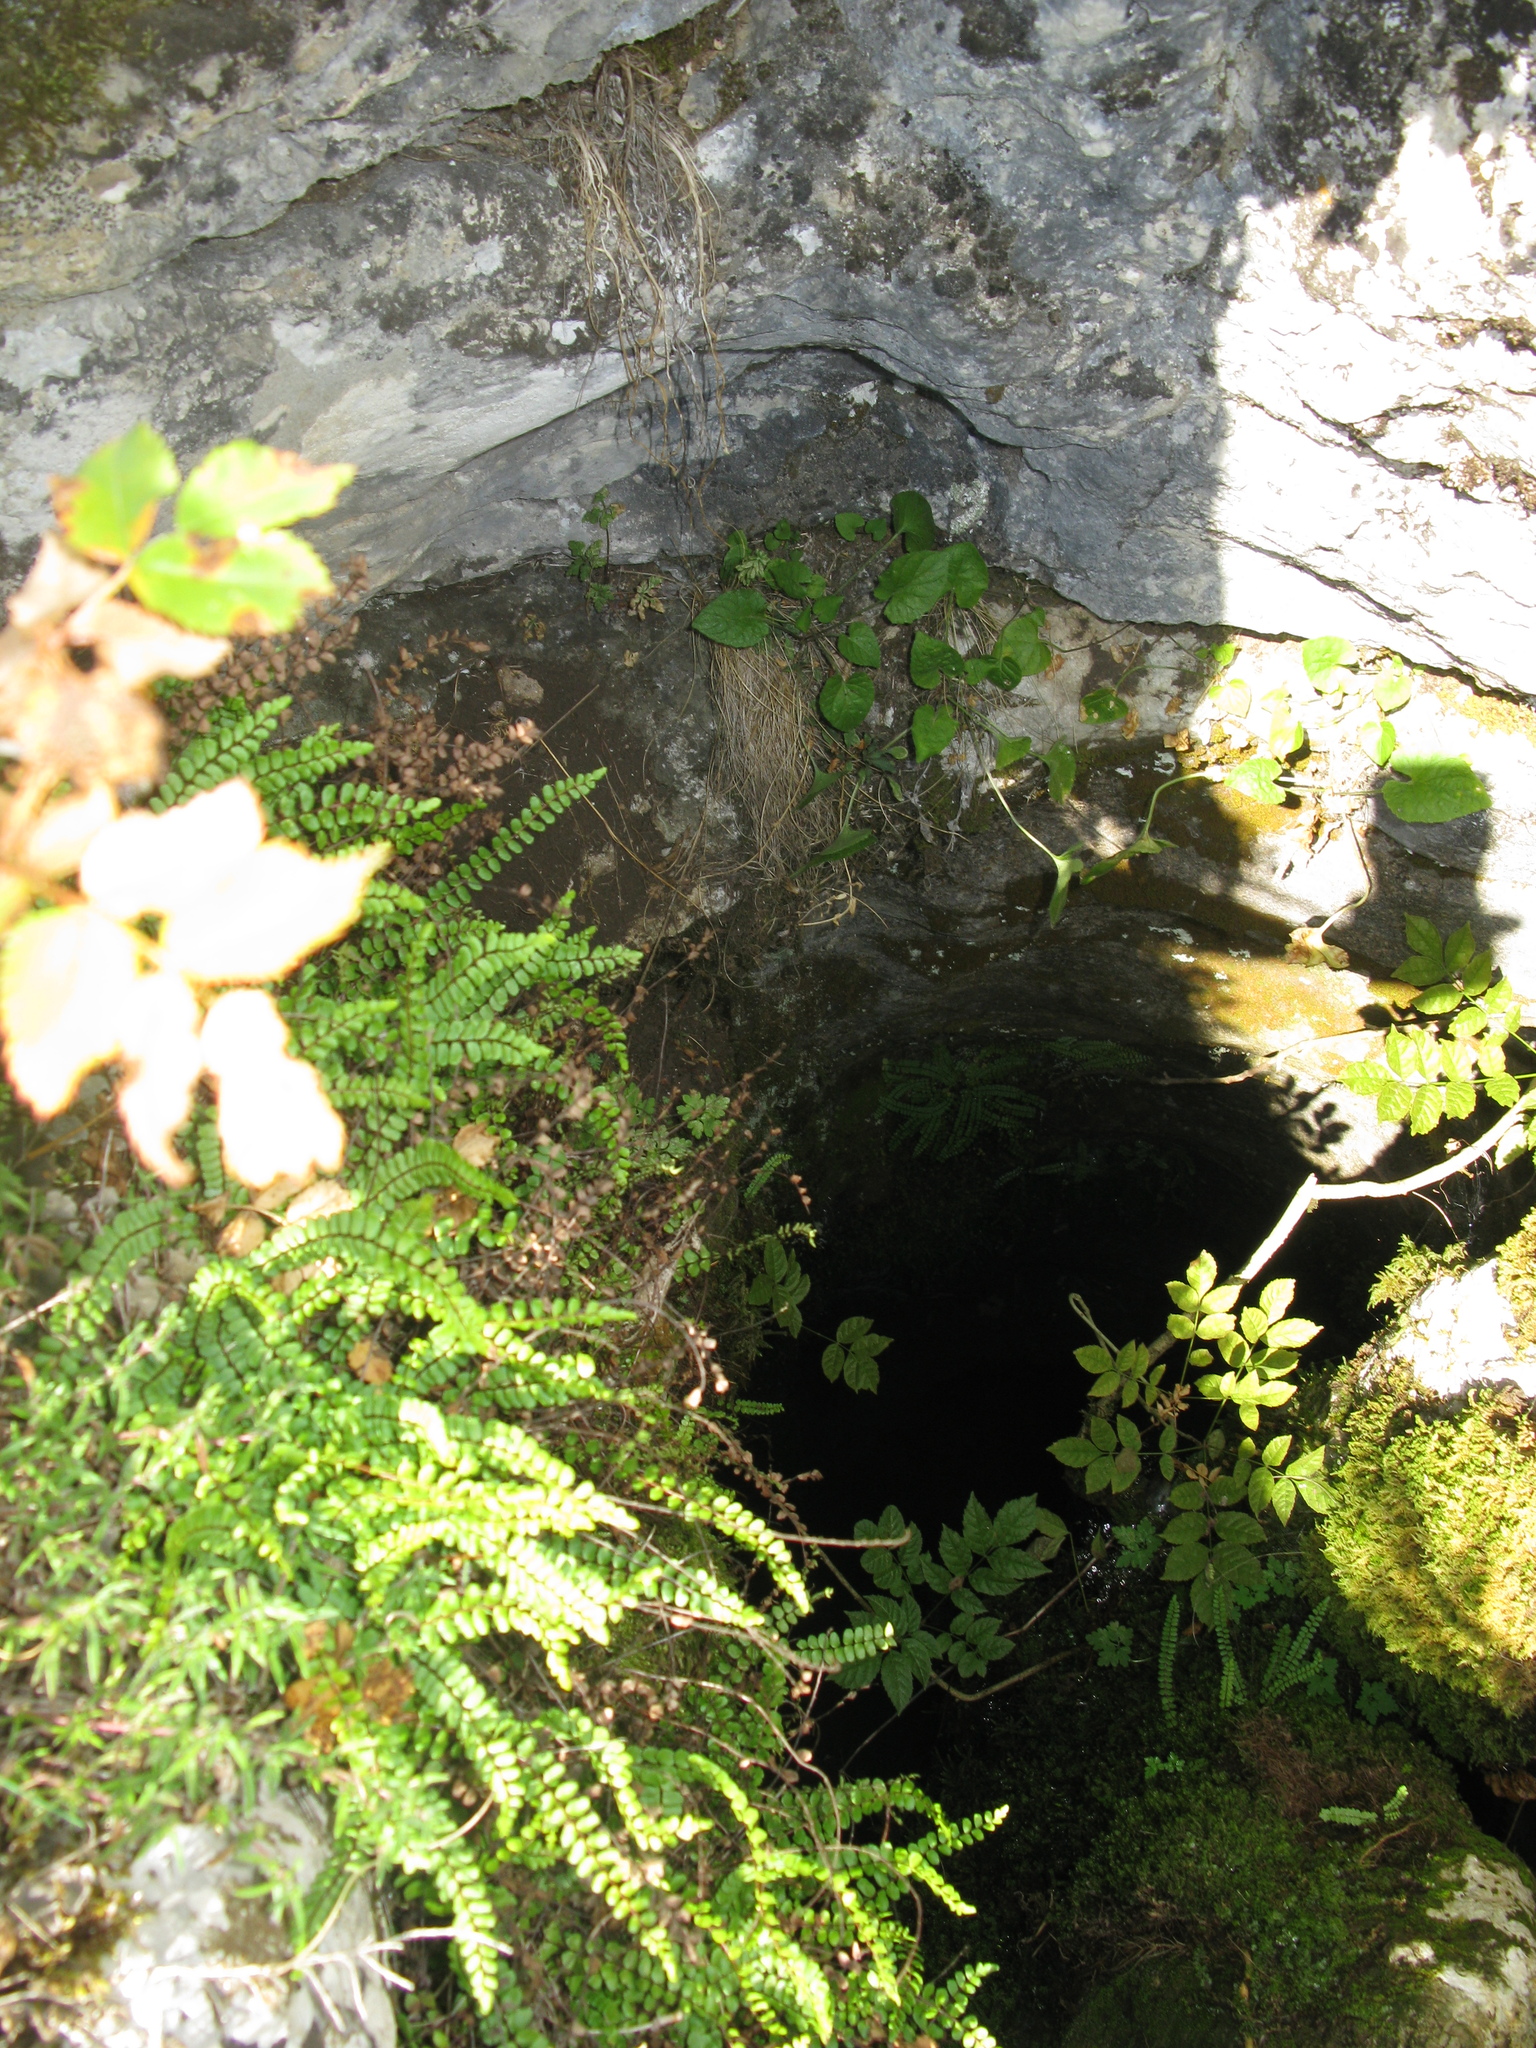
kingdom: Plantae
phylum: Tracheophyta
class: Polypodiopsida
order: Polypodiales
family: Aspleniaceae
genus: Asplenium
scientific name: Asplenium trichomanes
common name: Maidenhair spleenwort
